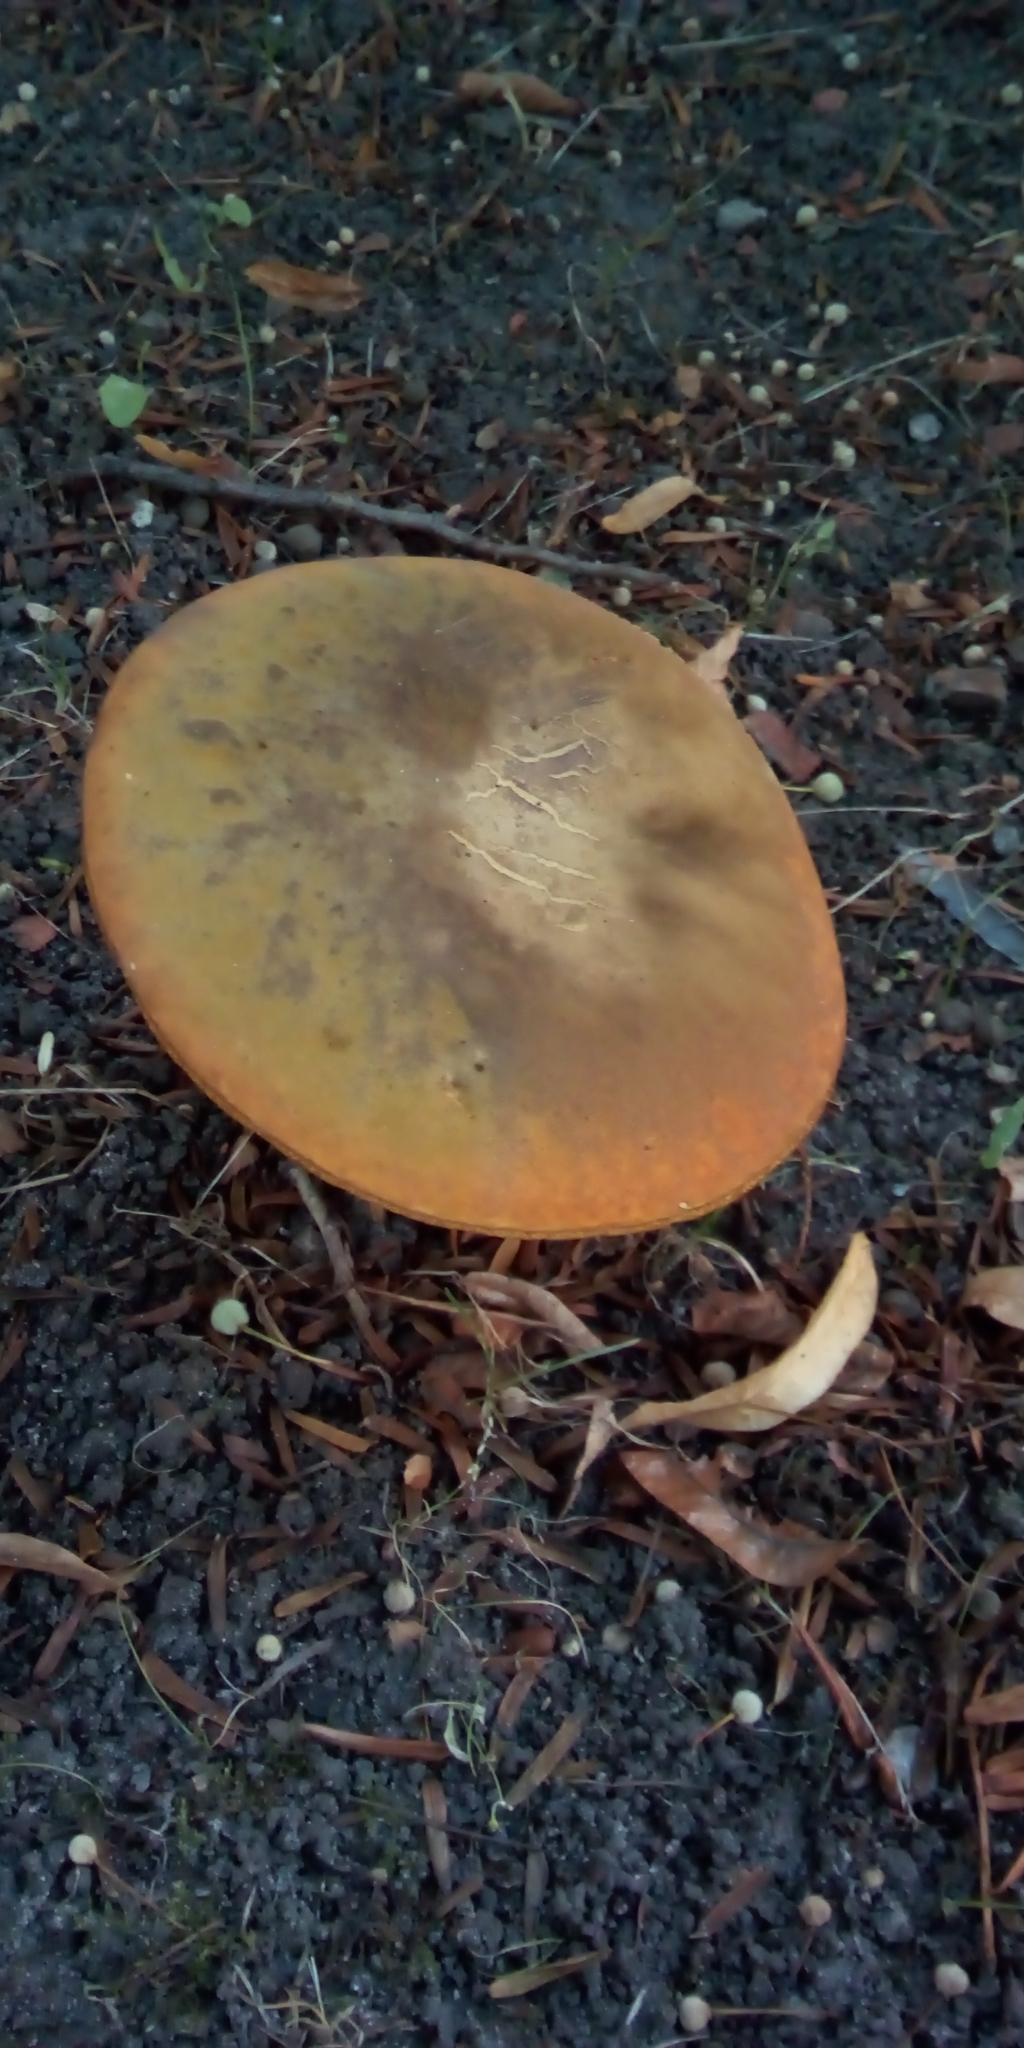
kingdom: Fungi
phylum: Basidiomycota
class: Agaricomycetes
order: Boletales
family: Boletaceae
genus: Suillellus
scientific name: Suillellus luridus
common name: Lurid bolete
